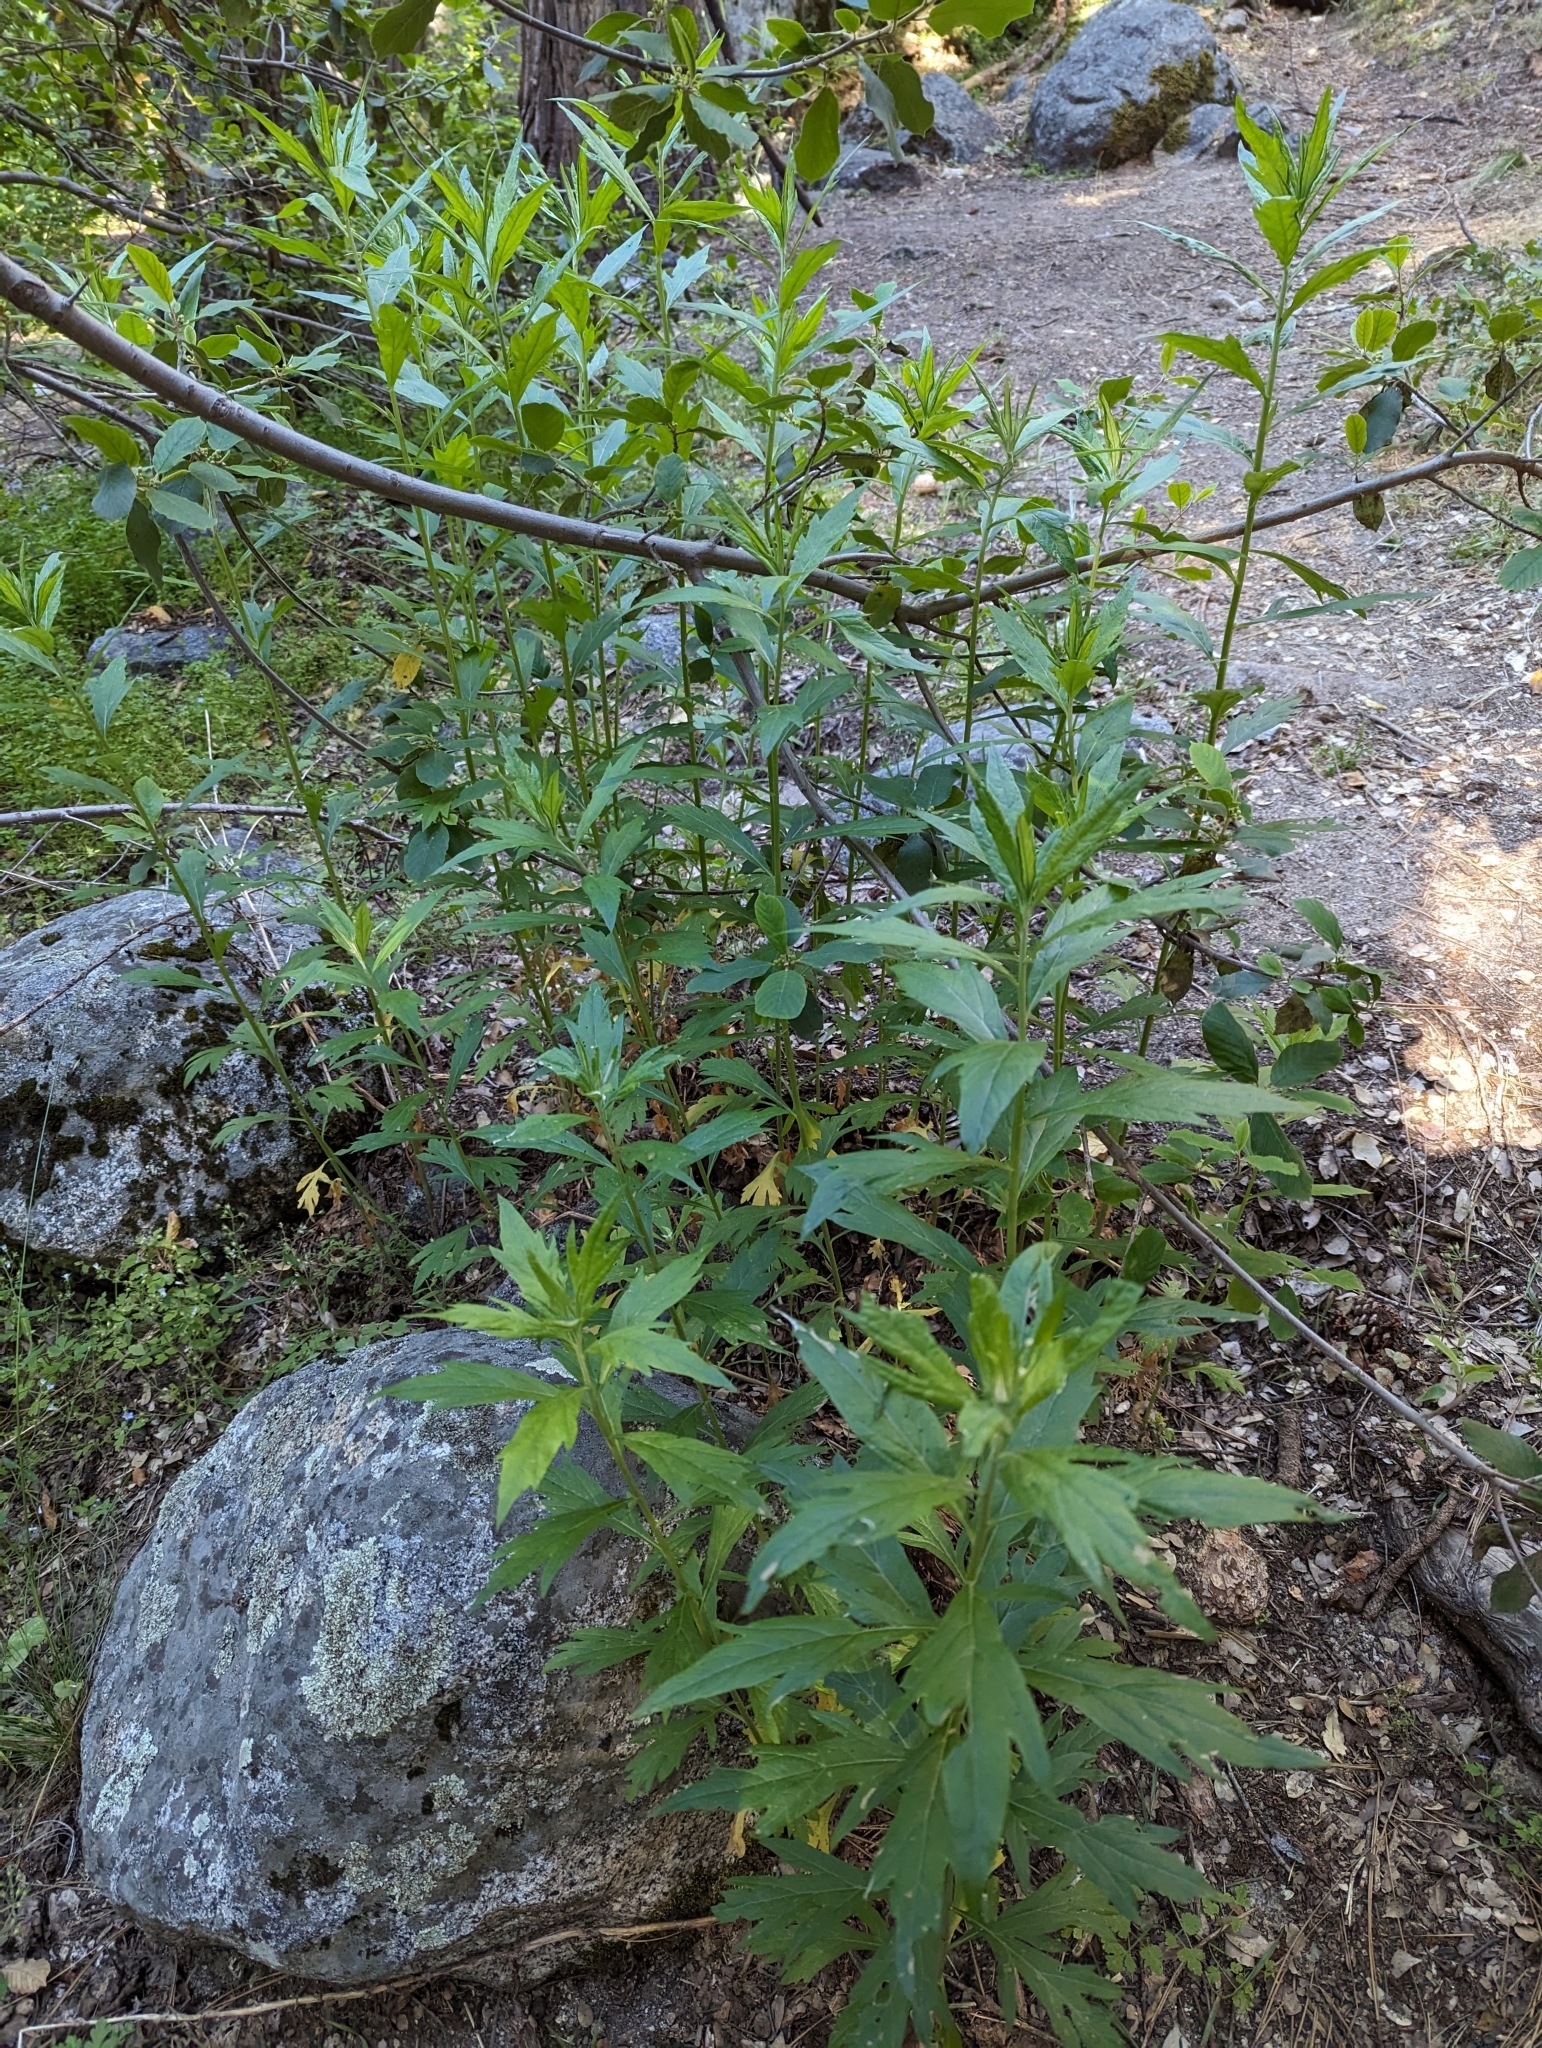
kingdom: Plantae
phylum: Tracheophyta
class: Magnoliopsida
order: Asterales
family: Asteraceae
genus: Artemisia
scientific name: Artemisia douglasiana
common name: Northwest mugwort
